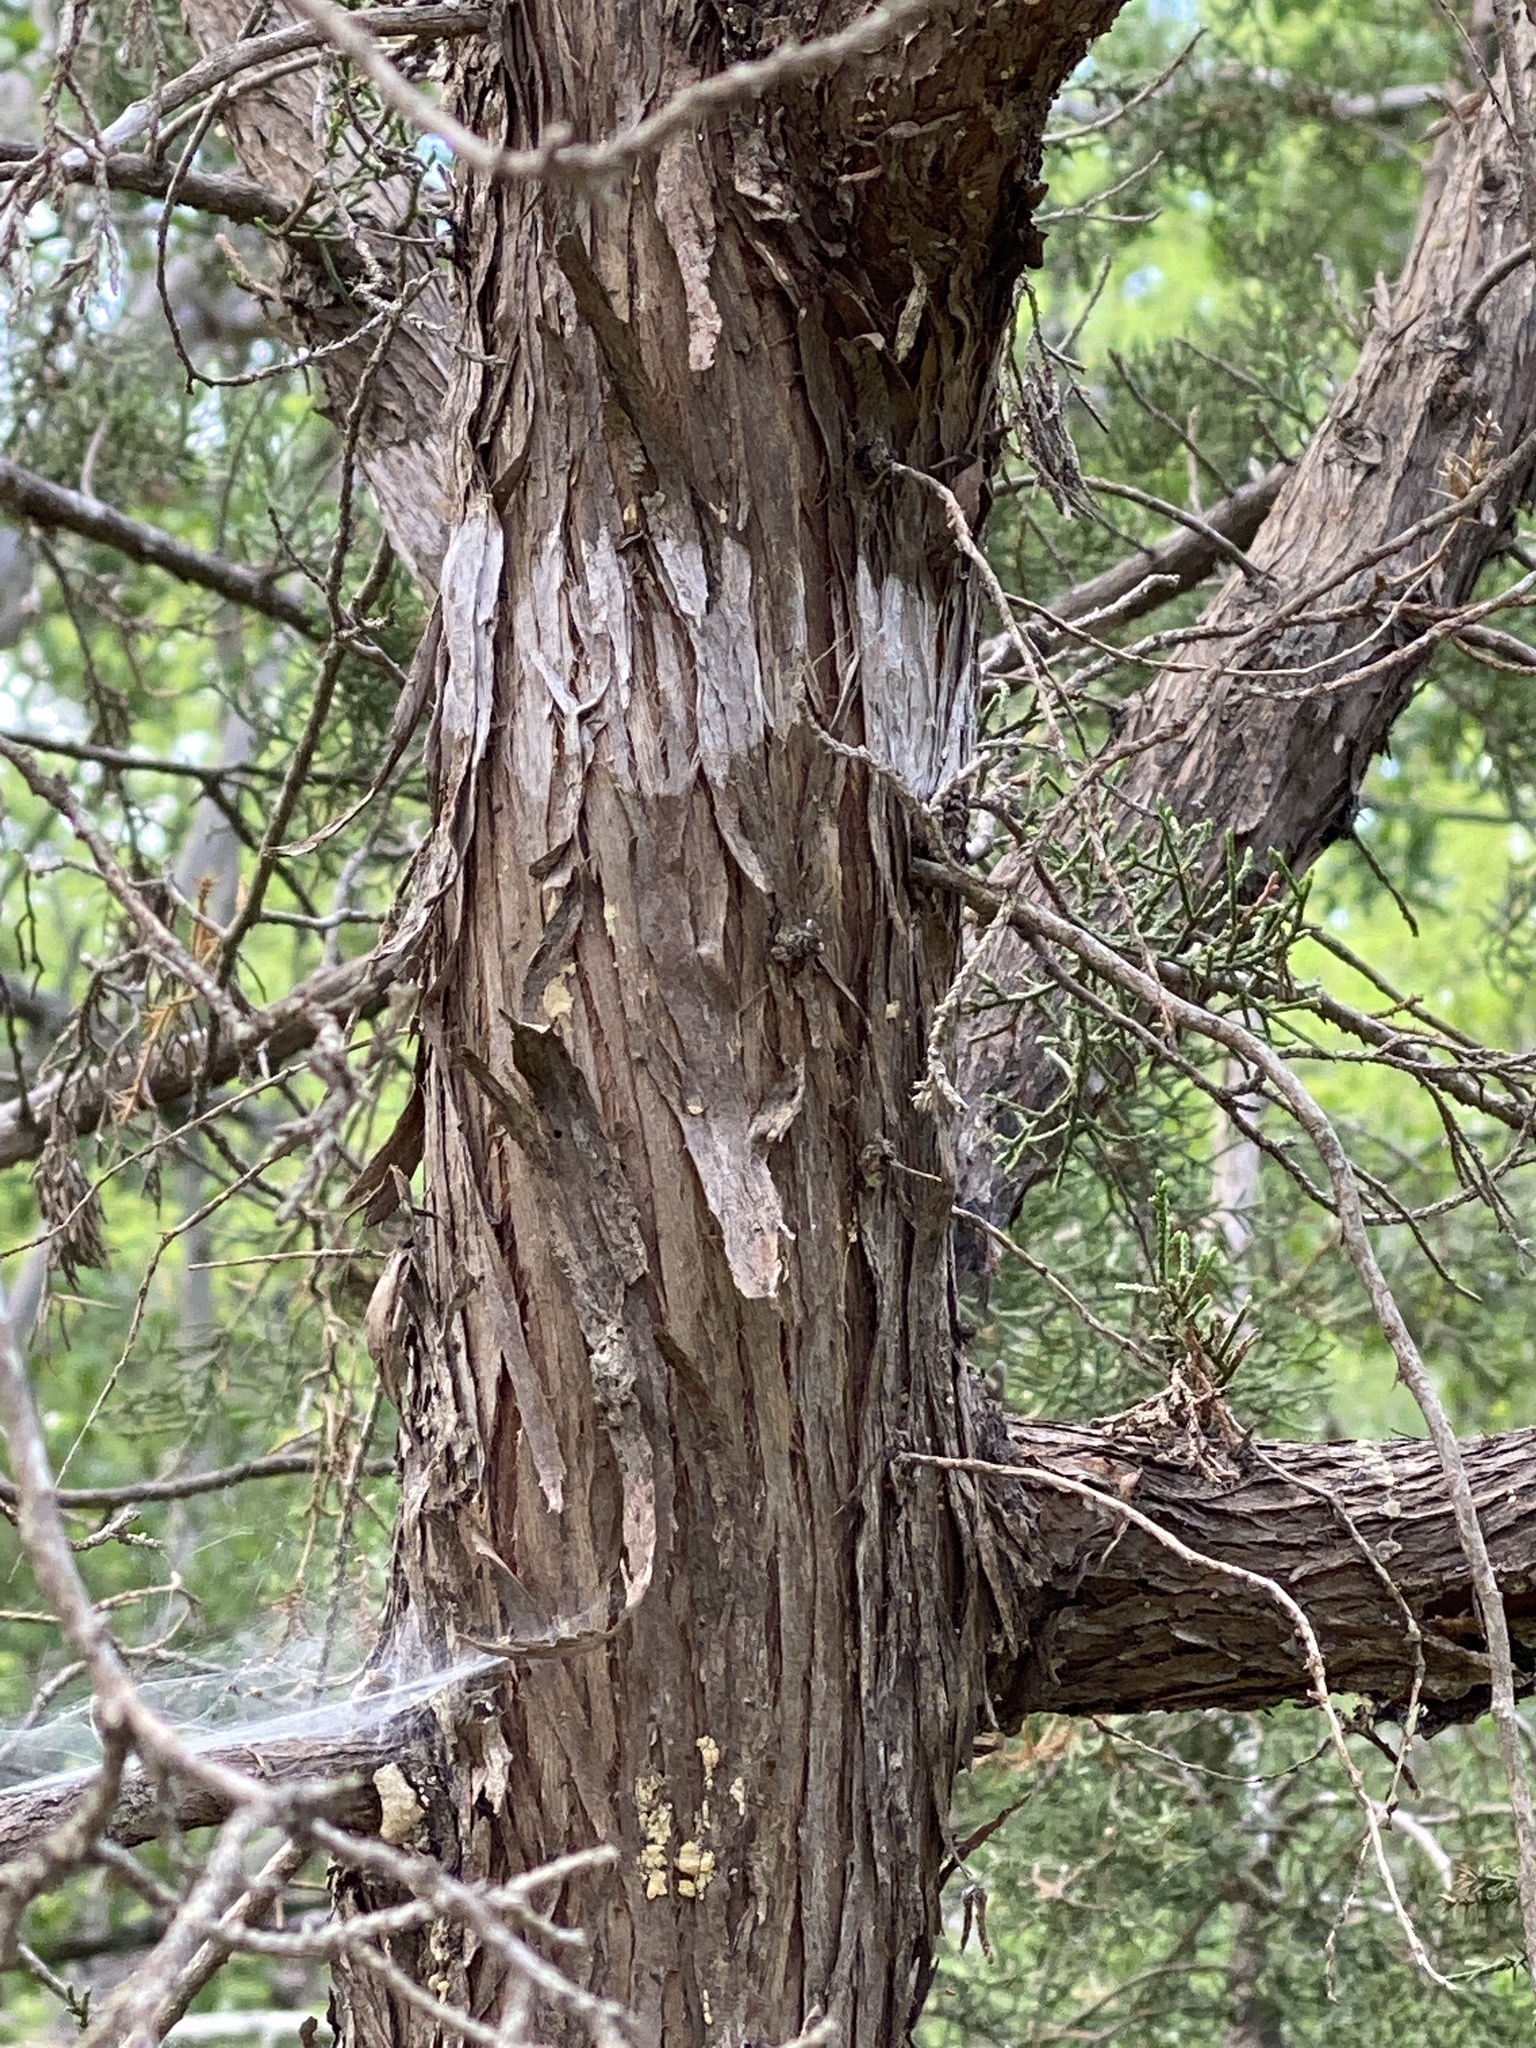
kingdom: Plantae
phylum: Tracheophyta
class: Pinopsida
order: Pinales
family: Cupressaceae
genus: Juniperus
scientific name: Juniperus ashei
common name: Mexican juniper
